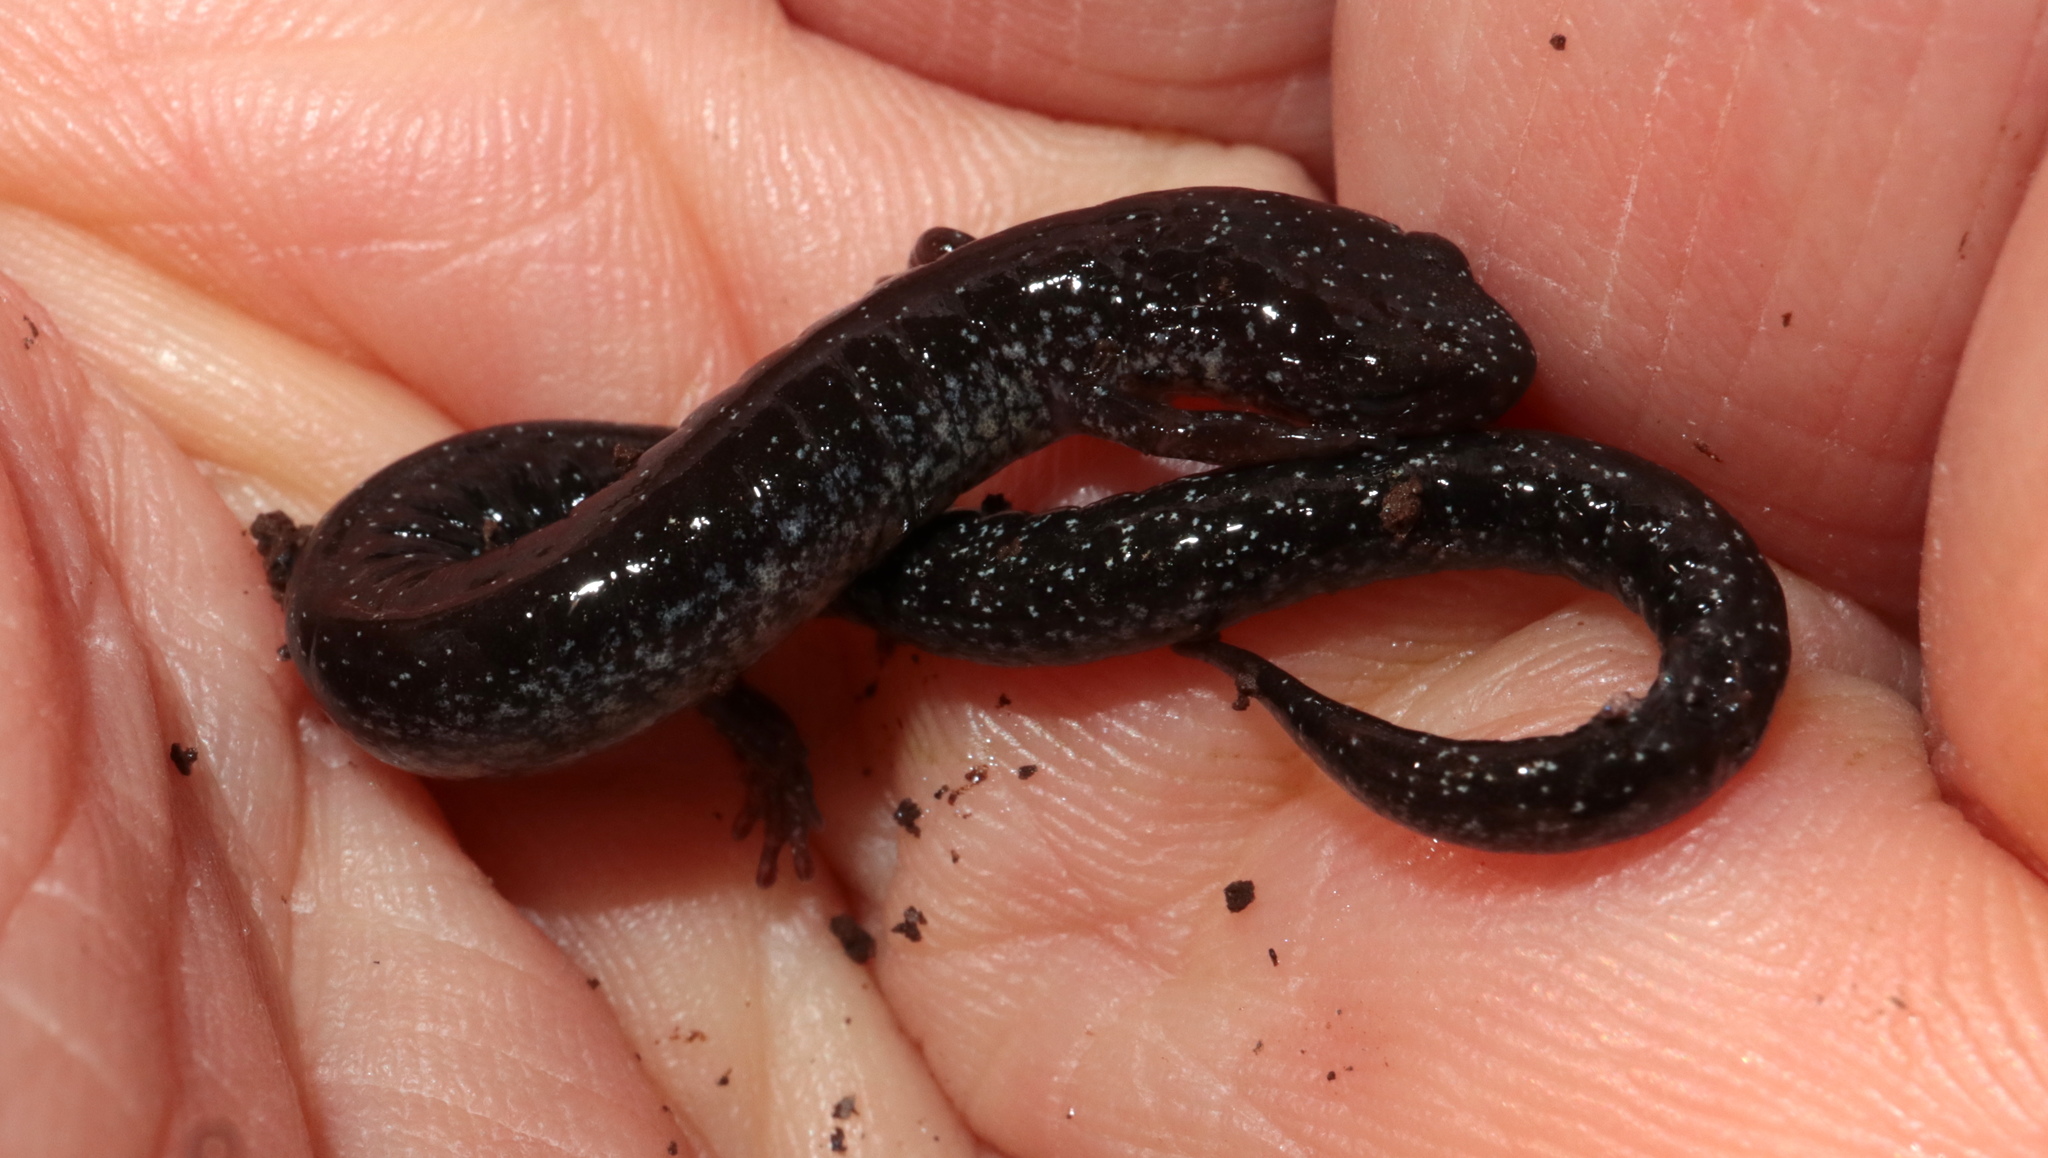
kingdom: Animalia
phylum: Chordata
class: Amphibia
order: Caudata
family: Plethodontidae
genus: Plethodon
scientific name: Plethodon cinereus
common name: Redback salamander
